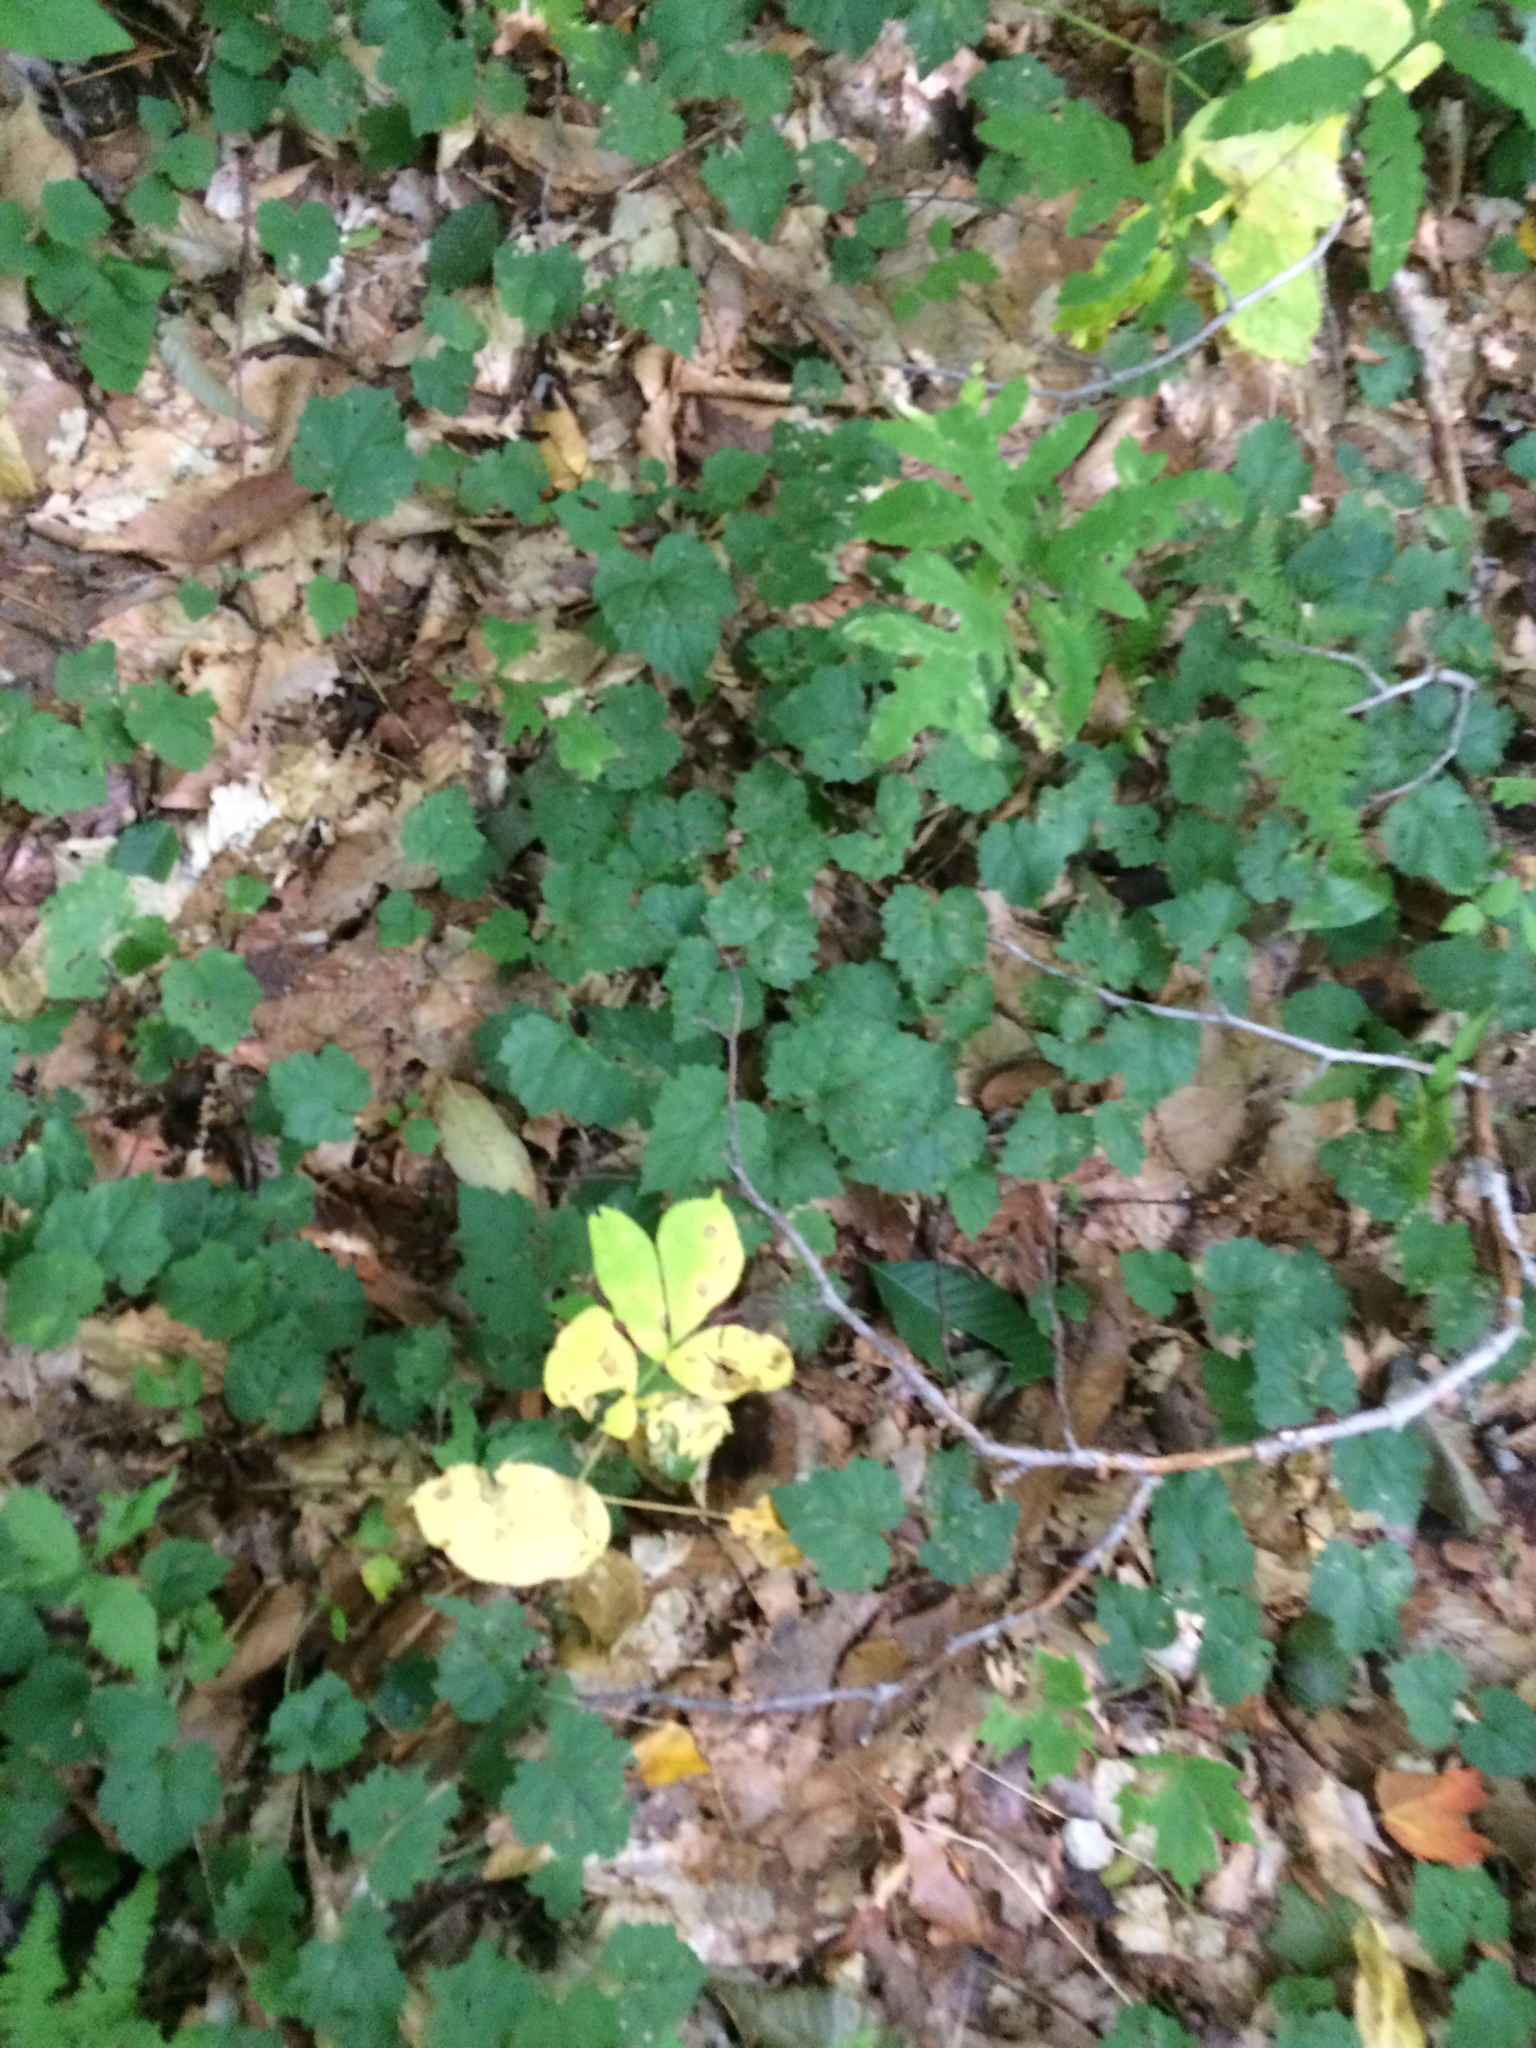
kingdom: Plantae
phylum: Tracheophyta
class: Magnoliopsida
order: Saxifragales
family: Saxifragaceae
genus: Tiarella
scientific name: Tiarella stolonifera
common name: Stoloniferous foamflower
